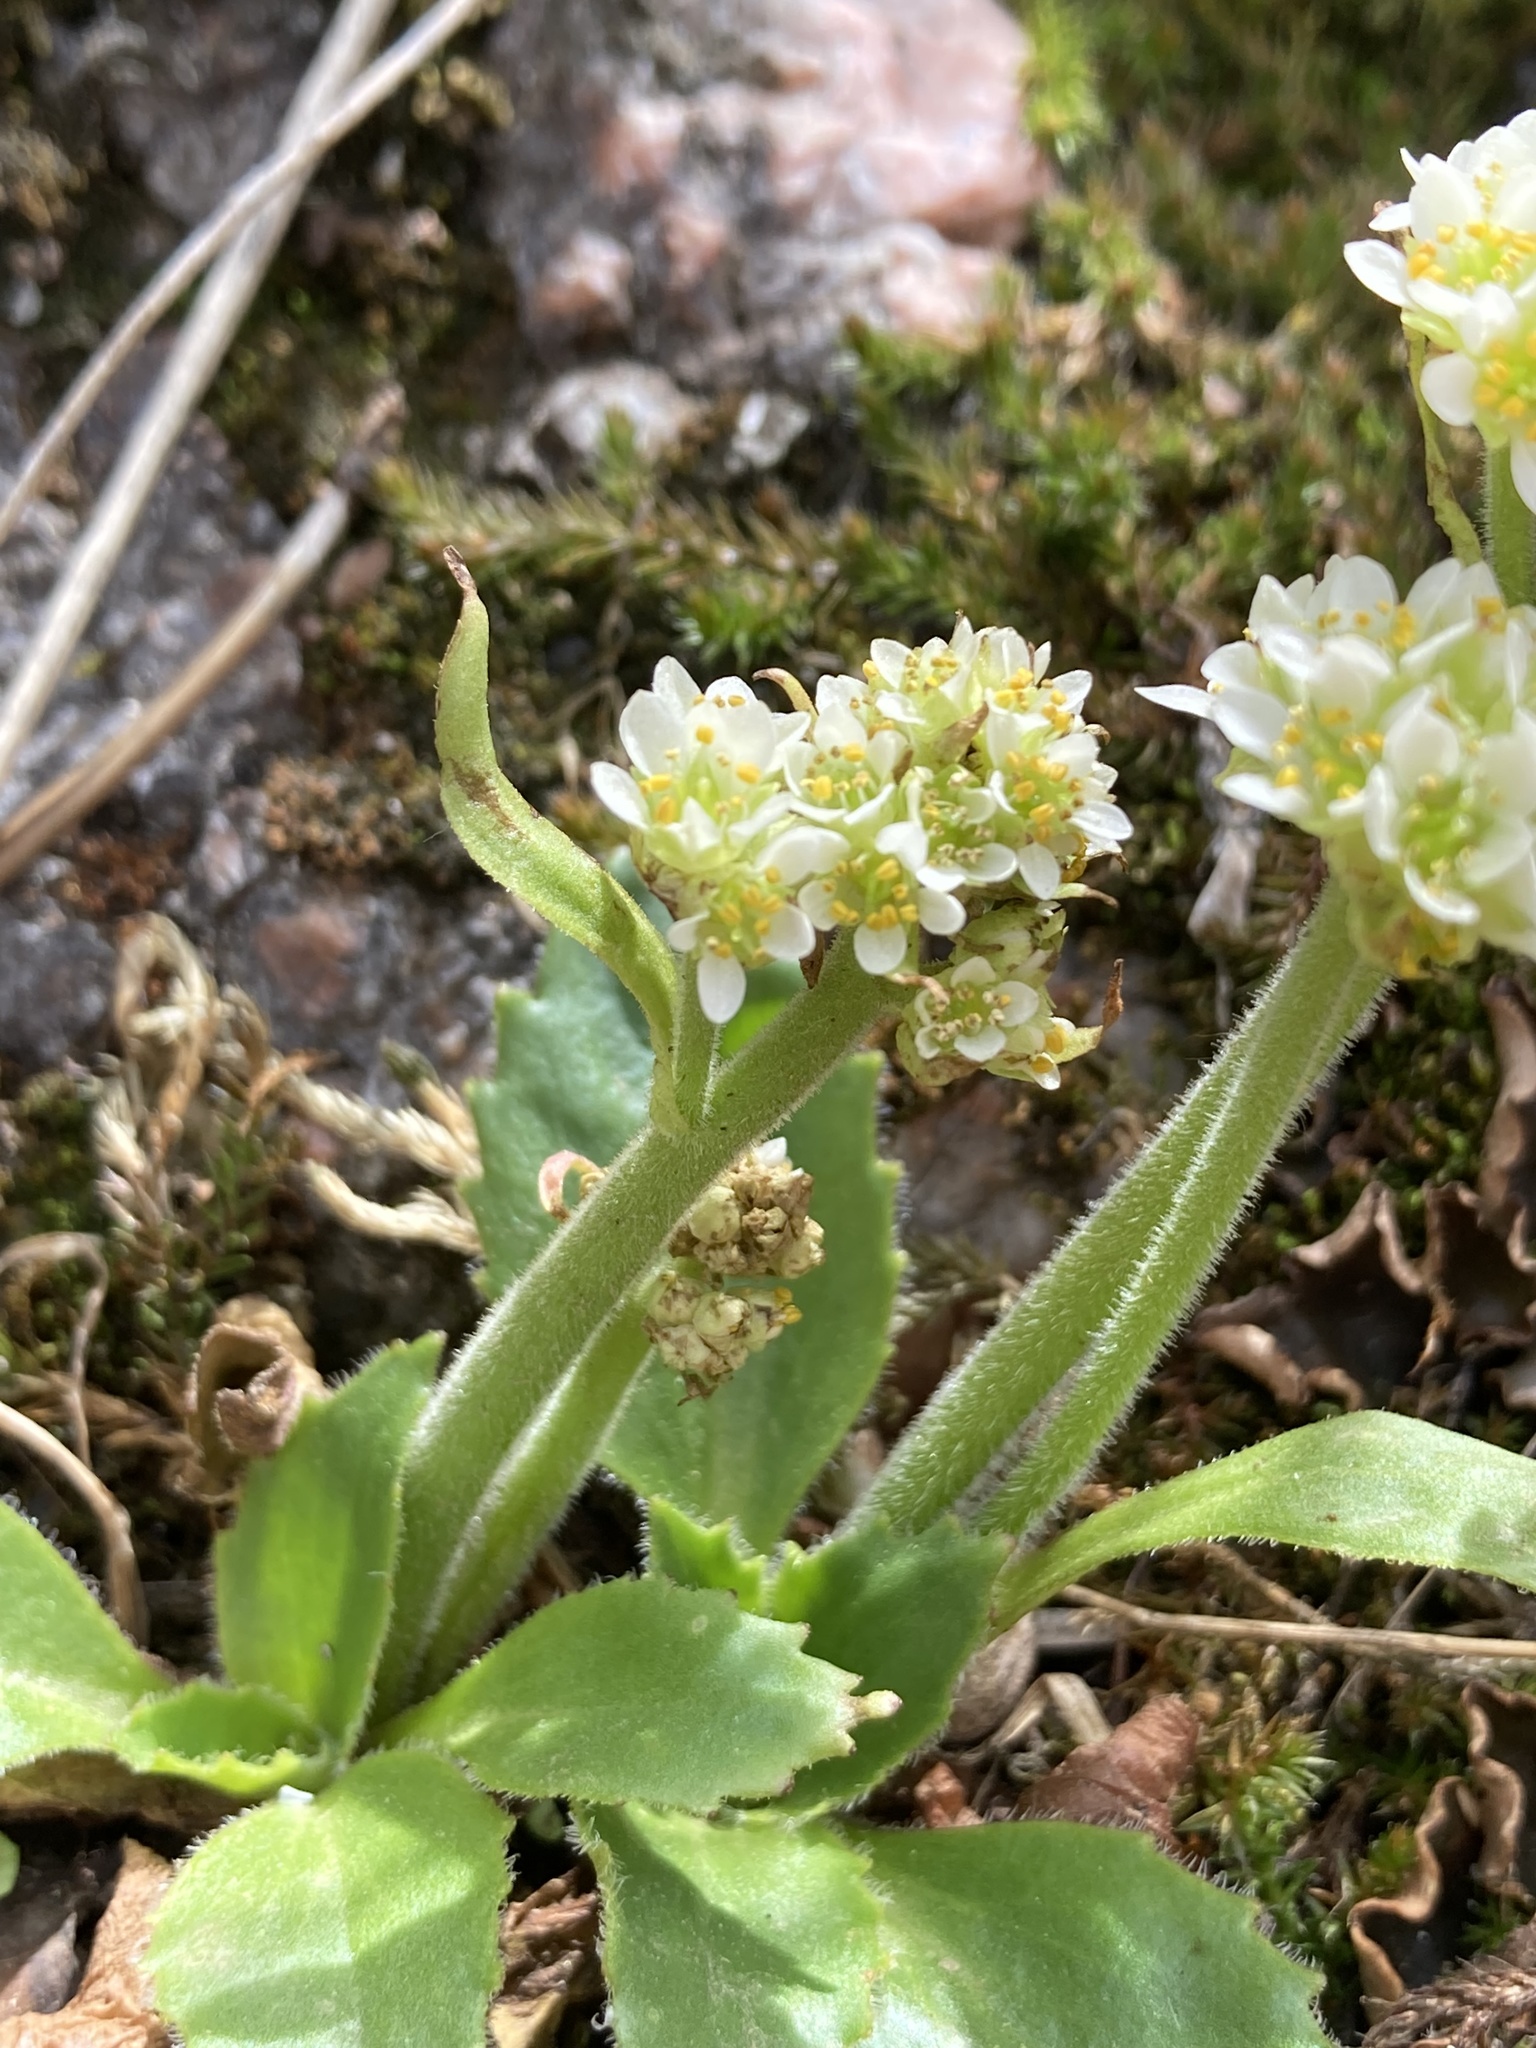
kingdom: Plantae
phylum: Tracheophyta
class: Magnoliopsida
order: Saxifragales
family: Saxifragaceae
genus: Micranthes
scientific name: Micranthes rhomboidea
